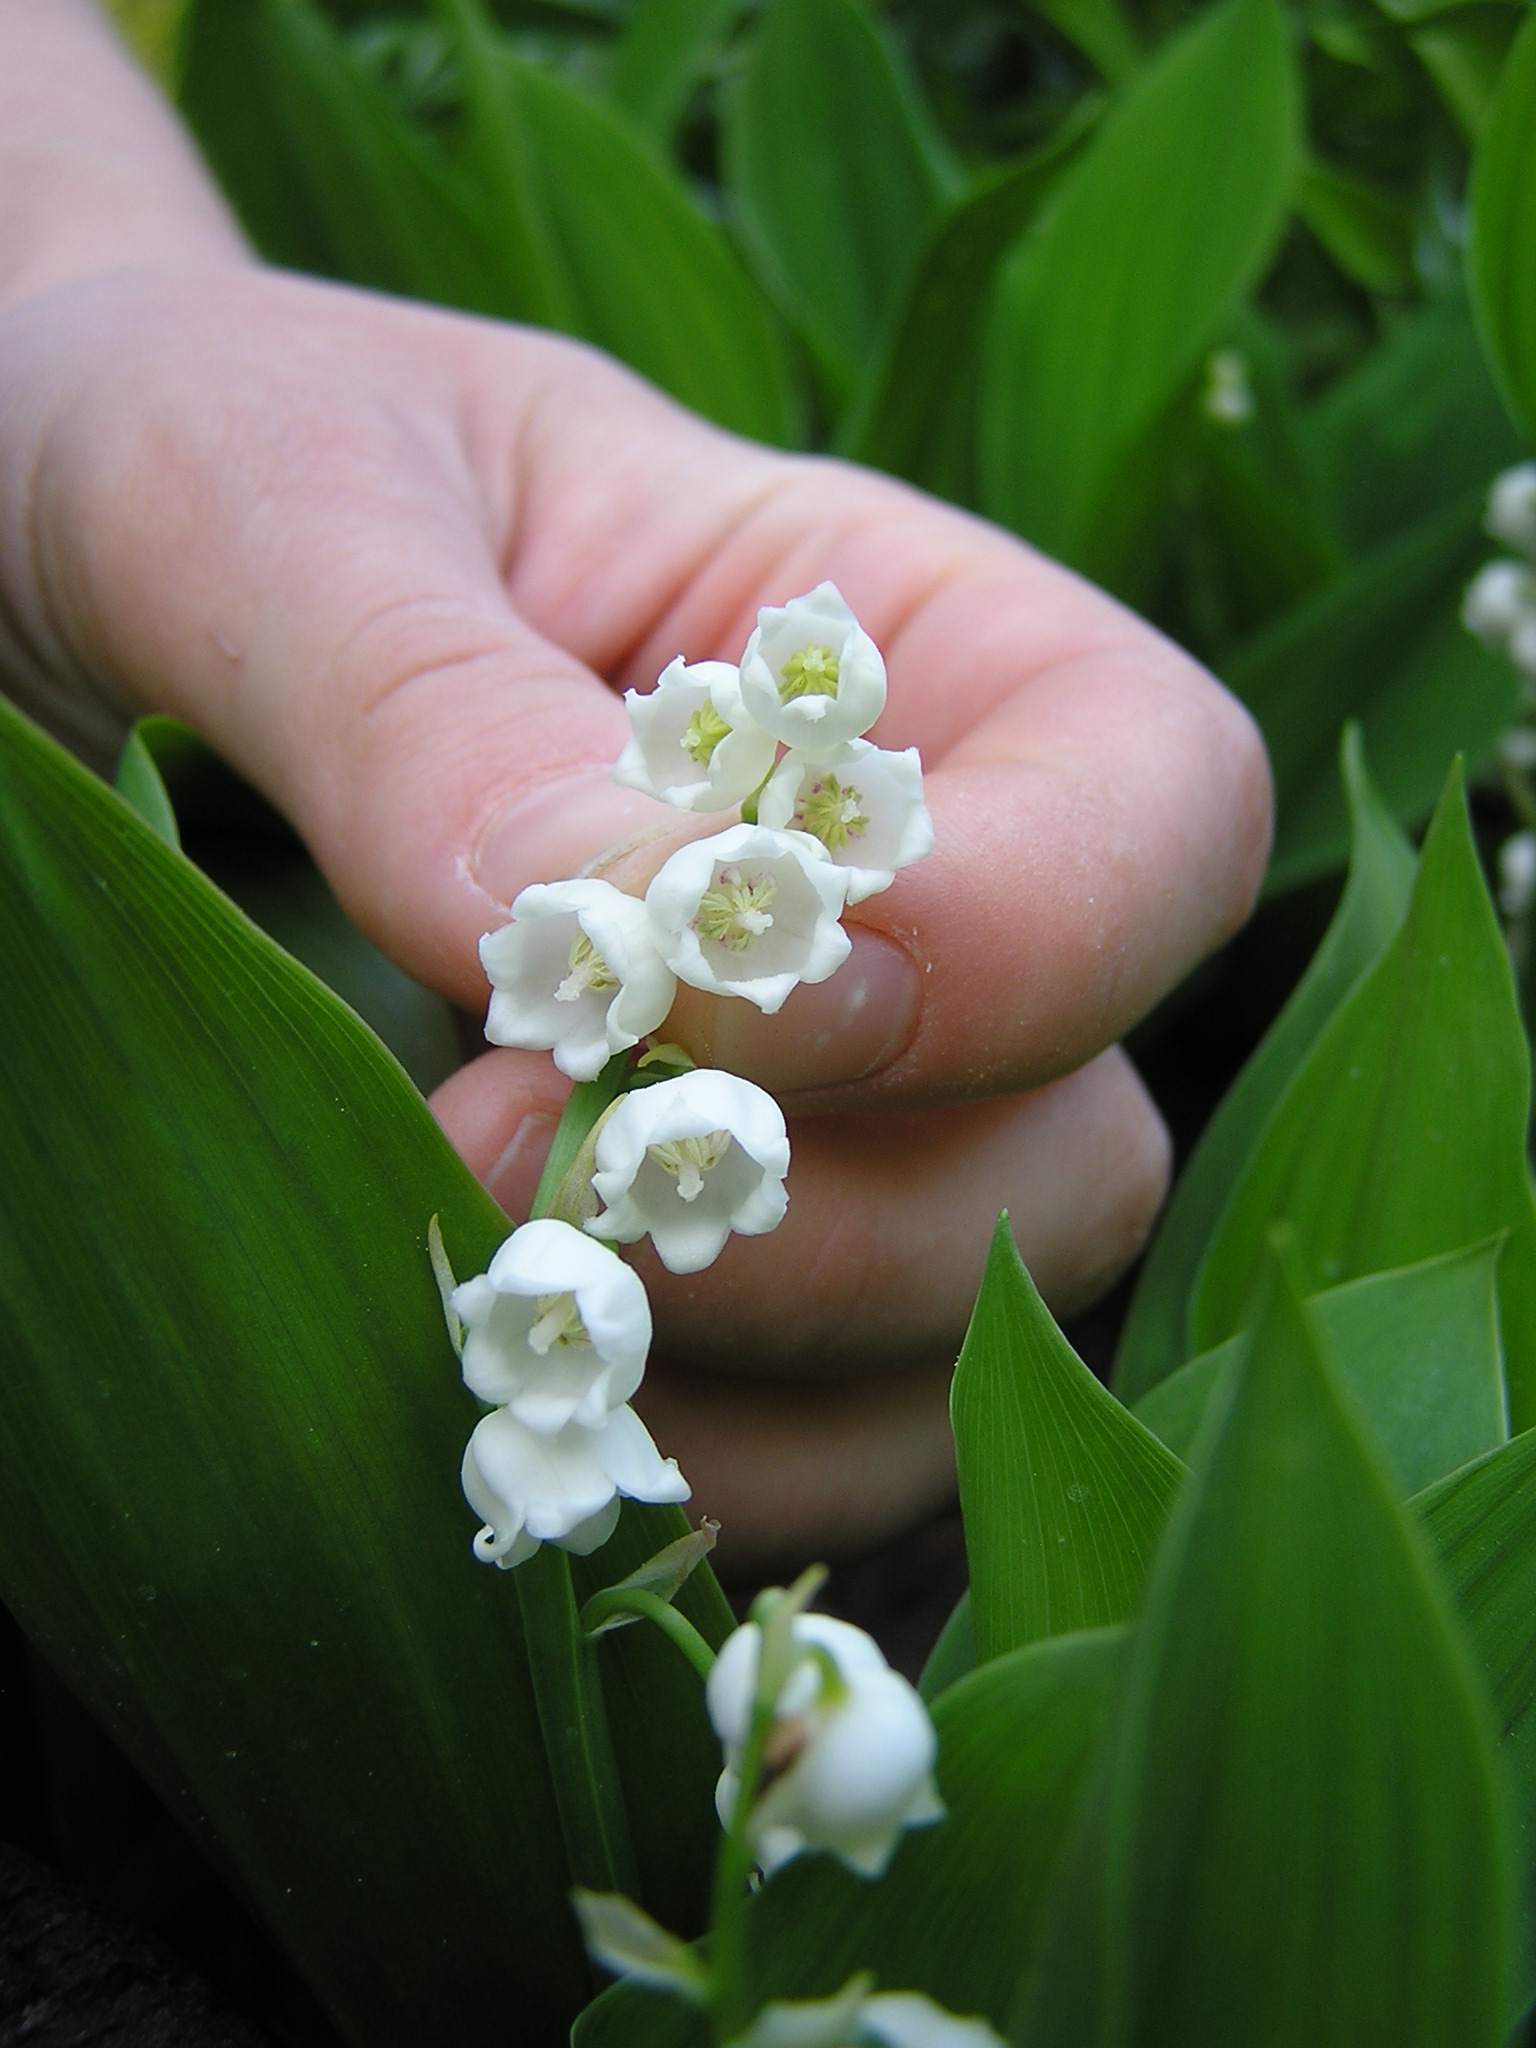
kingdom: Plantae
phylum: Tracheophyta
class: Liliopsida
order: Asparagales
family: Asparagaceae
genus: Convallaria
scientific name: Convallaria majalis
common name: Lily-of-the-valley
